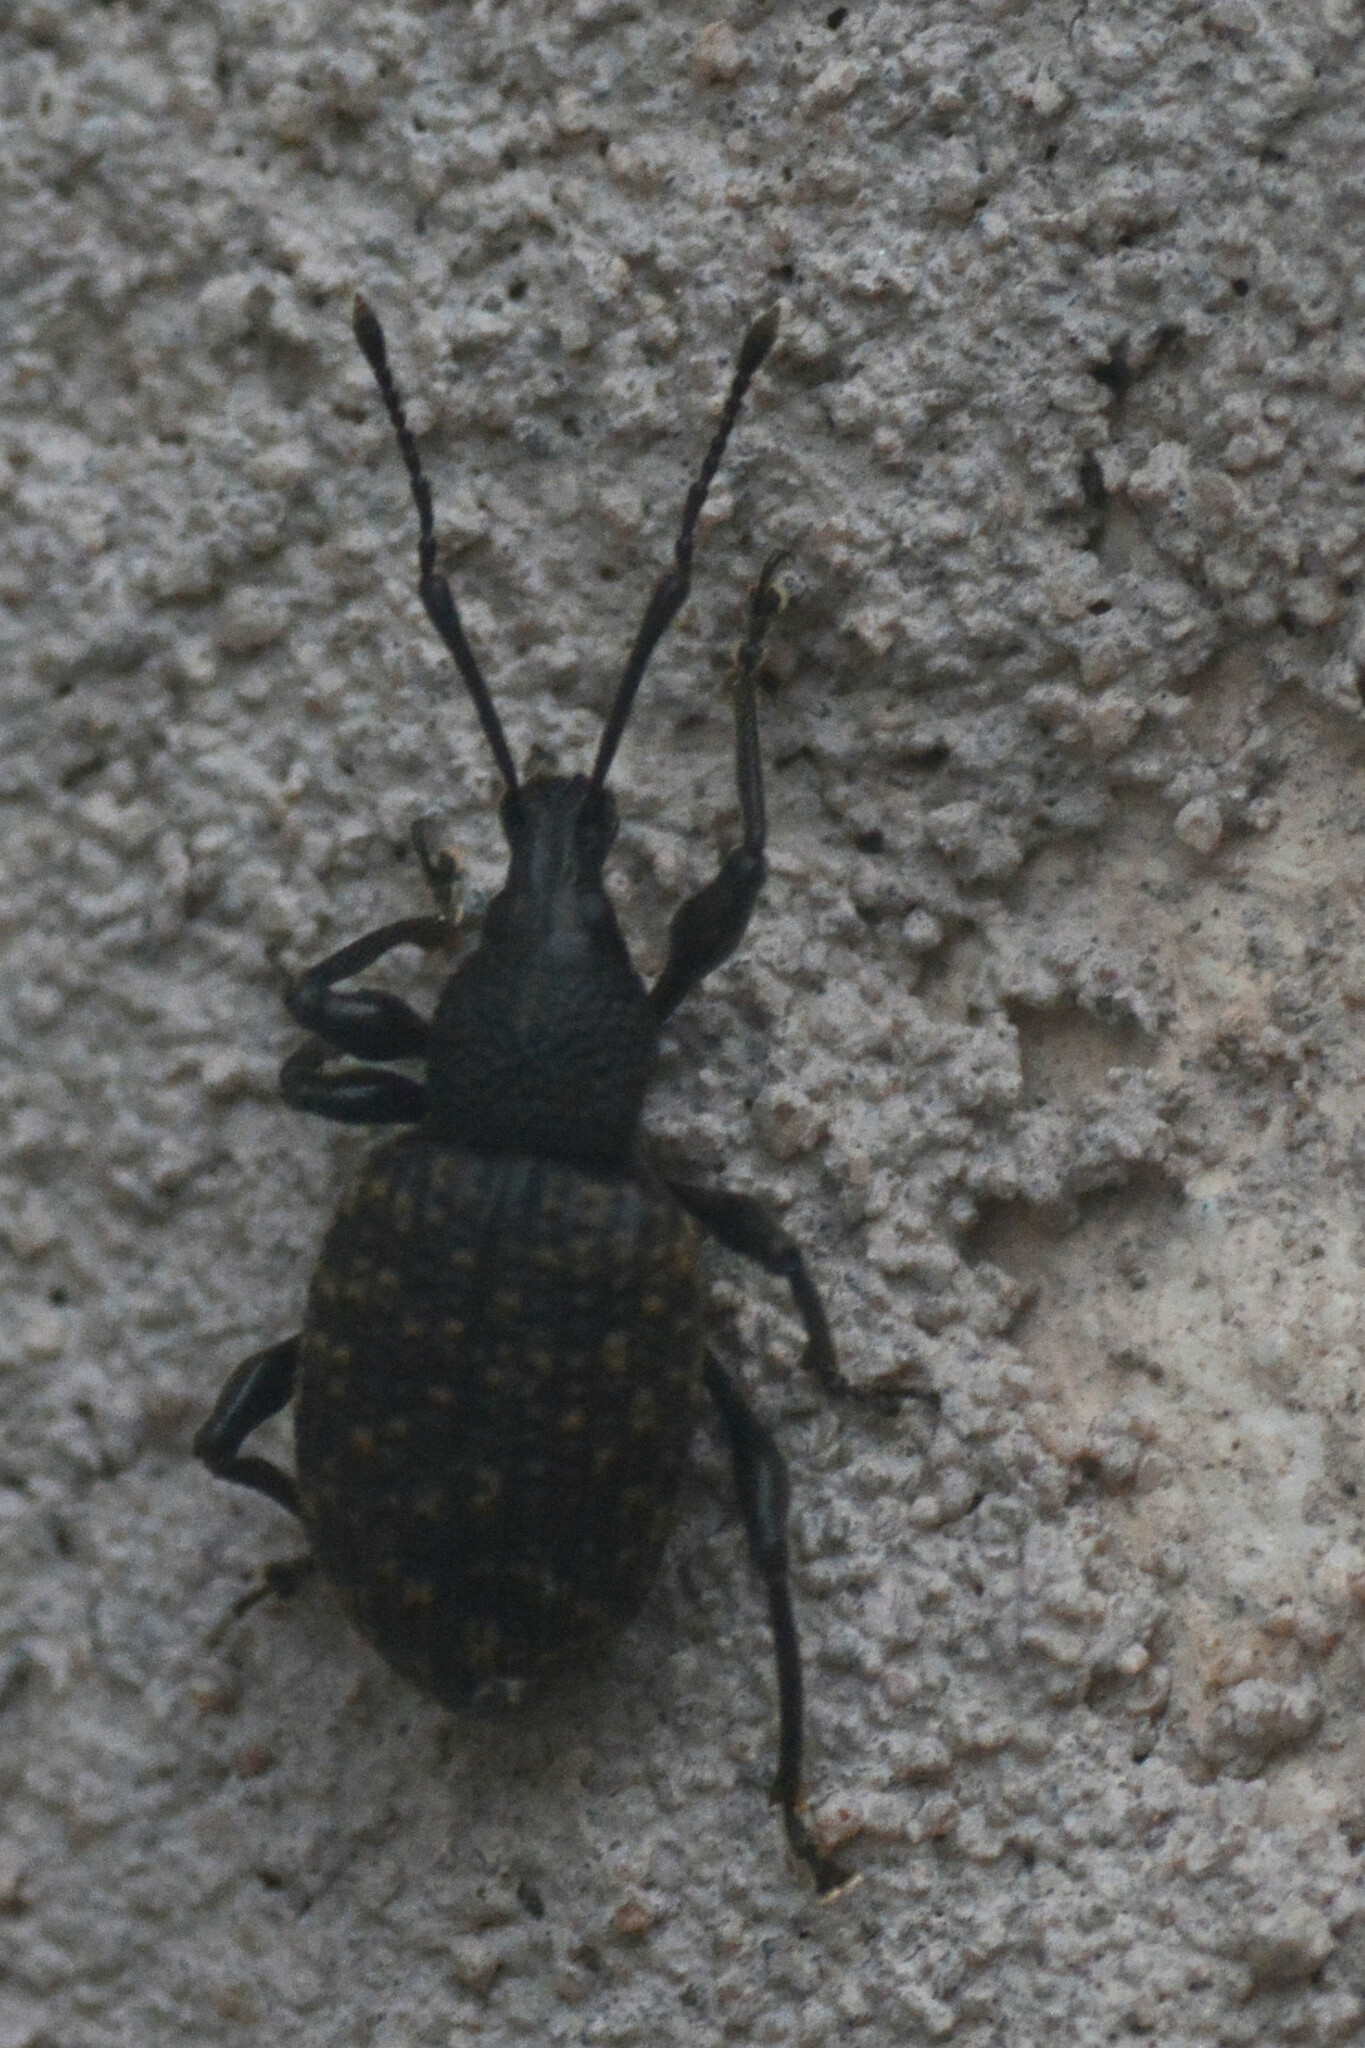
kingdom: Animalia
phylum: Arthropoda
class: Insecta
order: Coleoptera
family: Curculionidae
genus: Otiorhynchus
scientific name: Otiorhynchus sulcatus
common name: Black vine weevil
